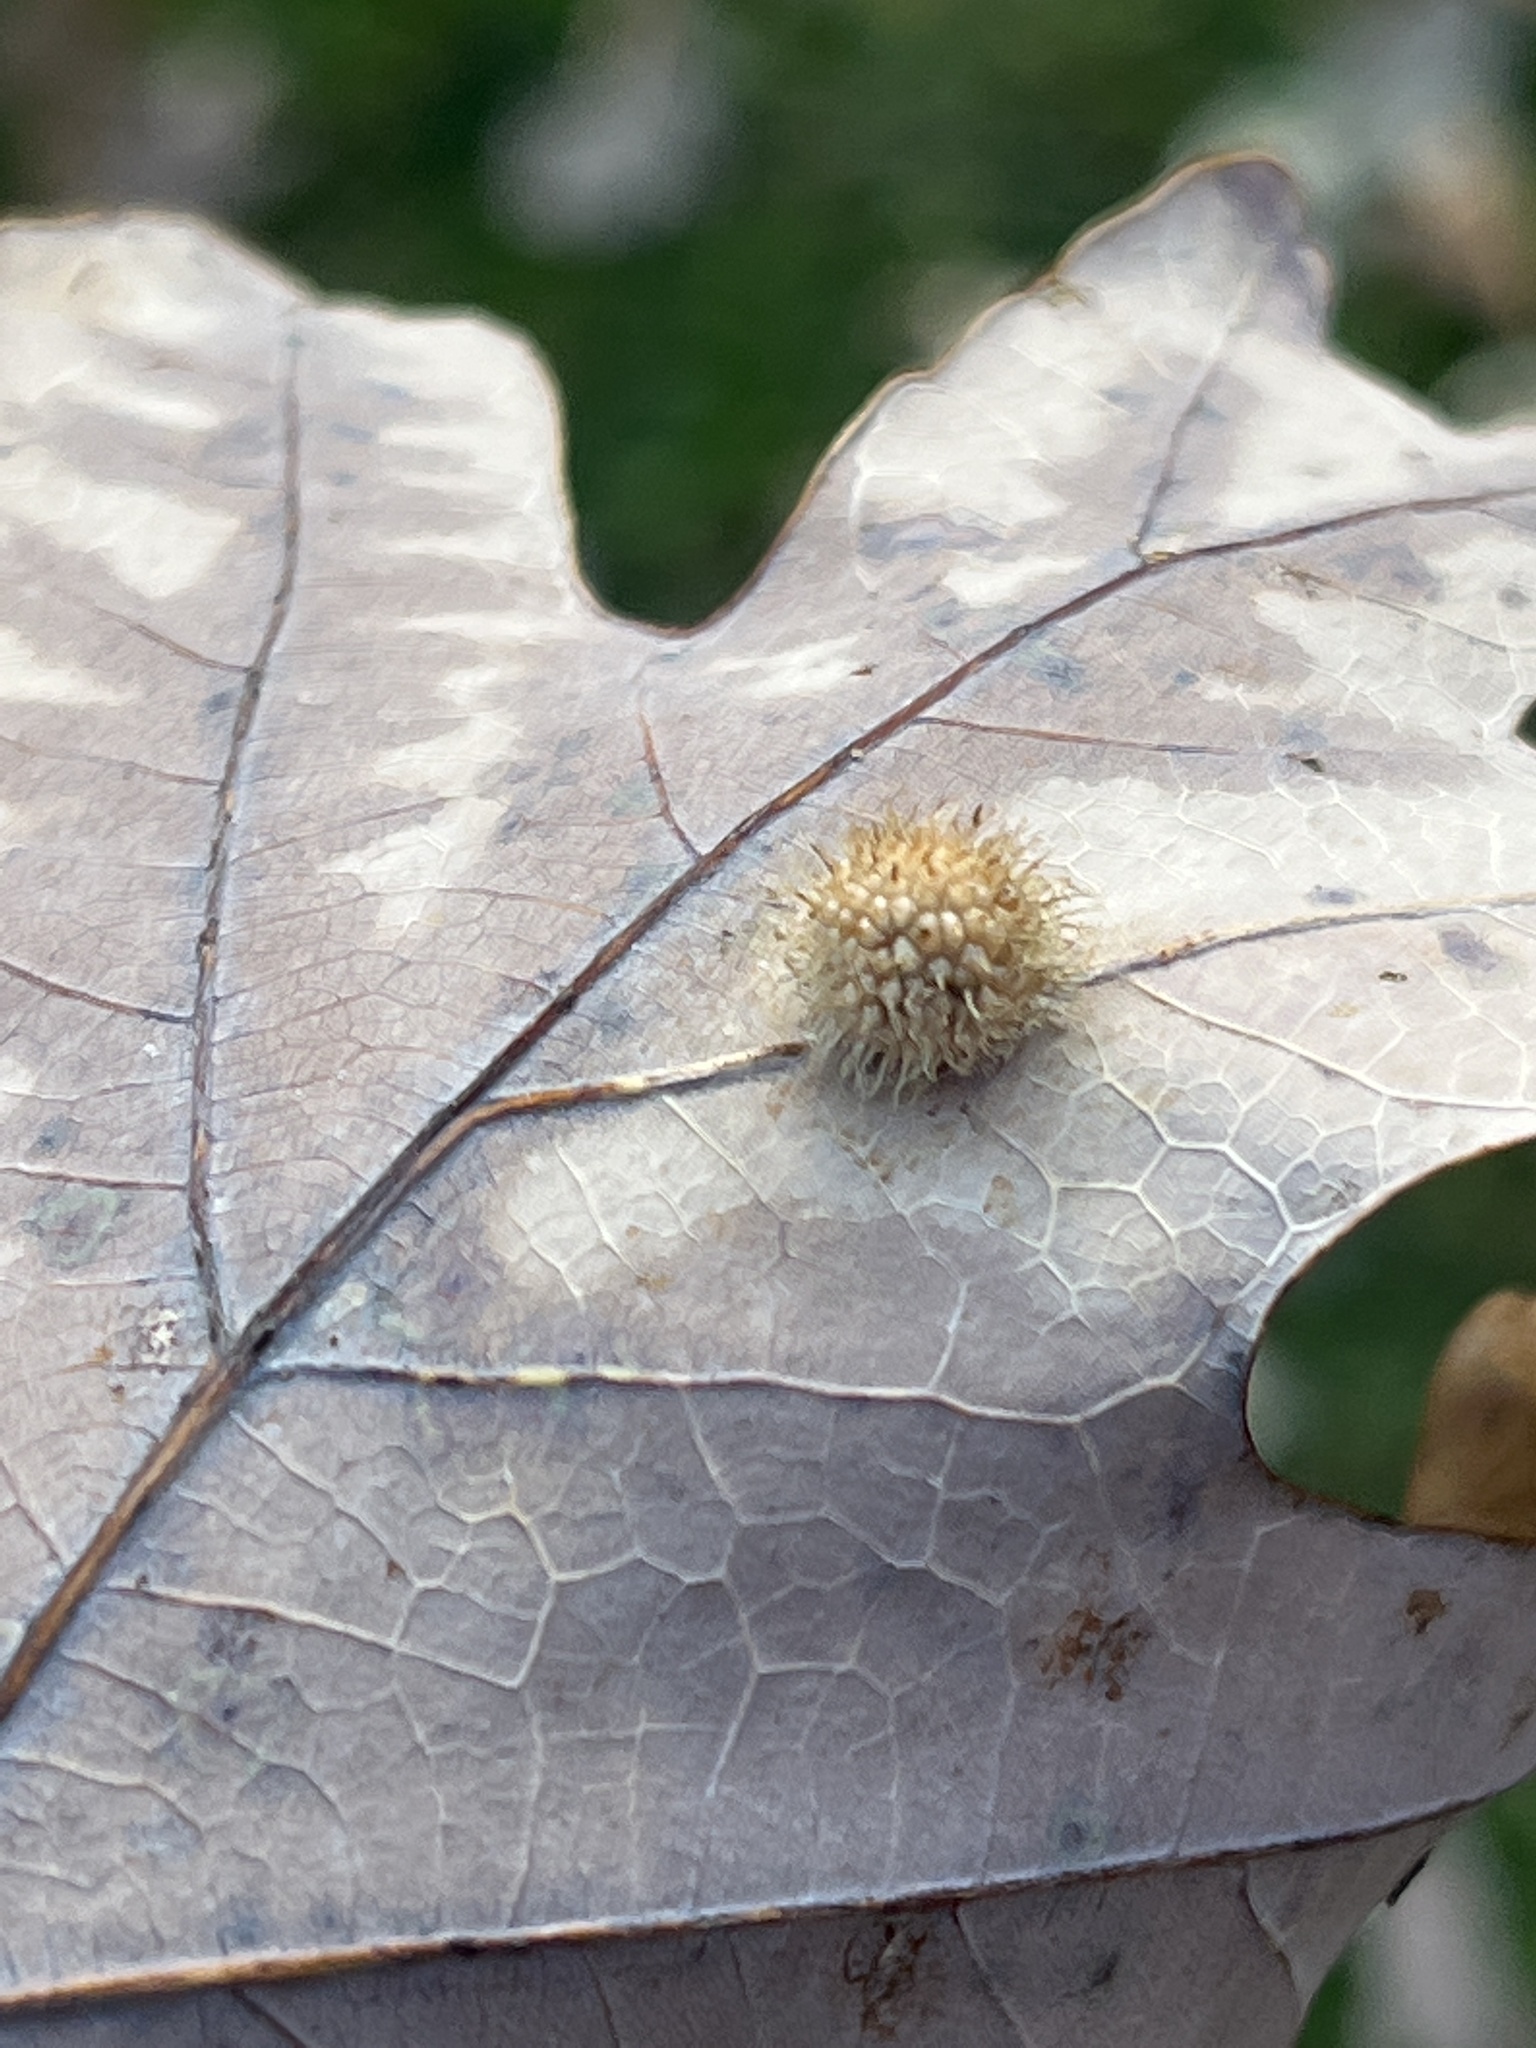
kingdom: Animalia
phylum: Arthropoda
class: Insecta
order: Hymenoptera
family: Cynipidae
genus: Acraspis
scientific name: Acraspis erinacei
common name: Hedgehog gall wasp
